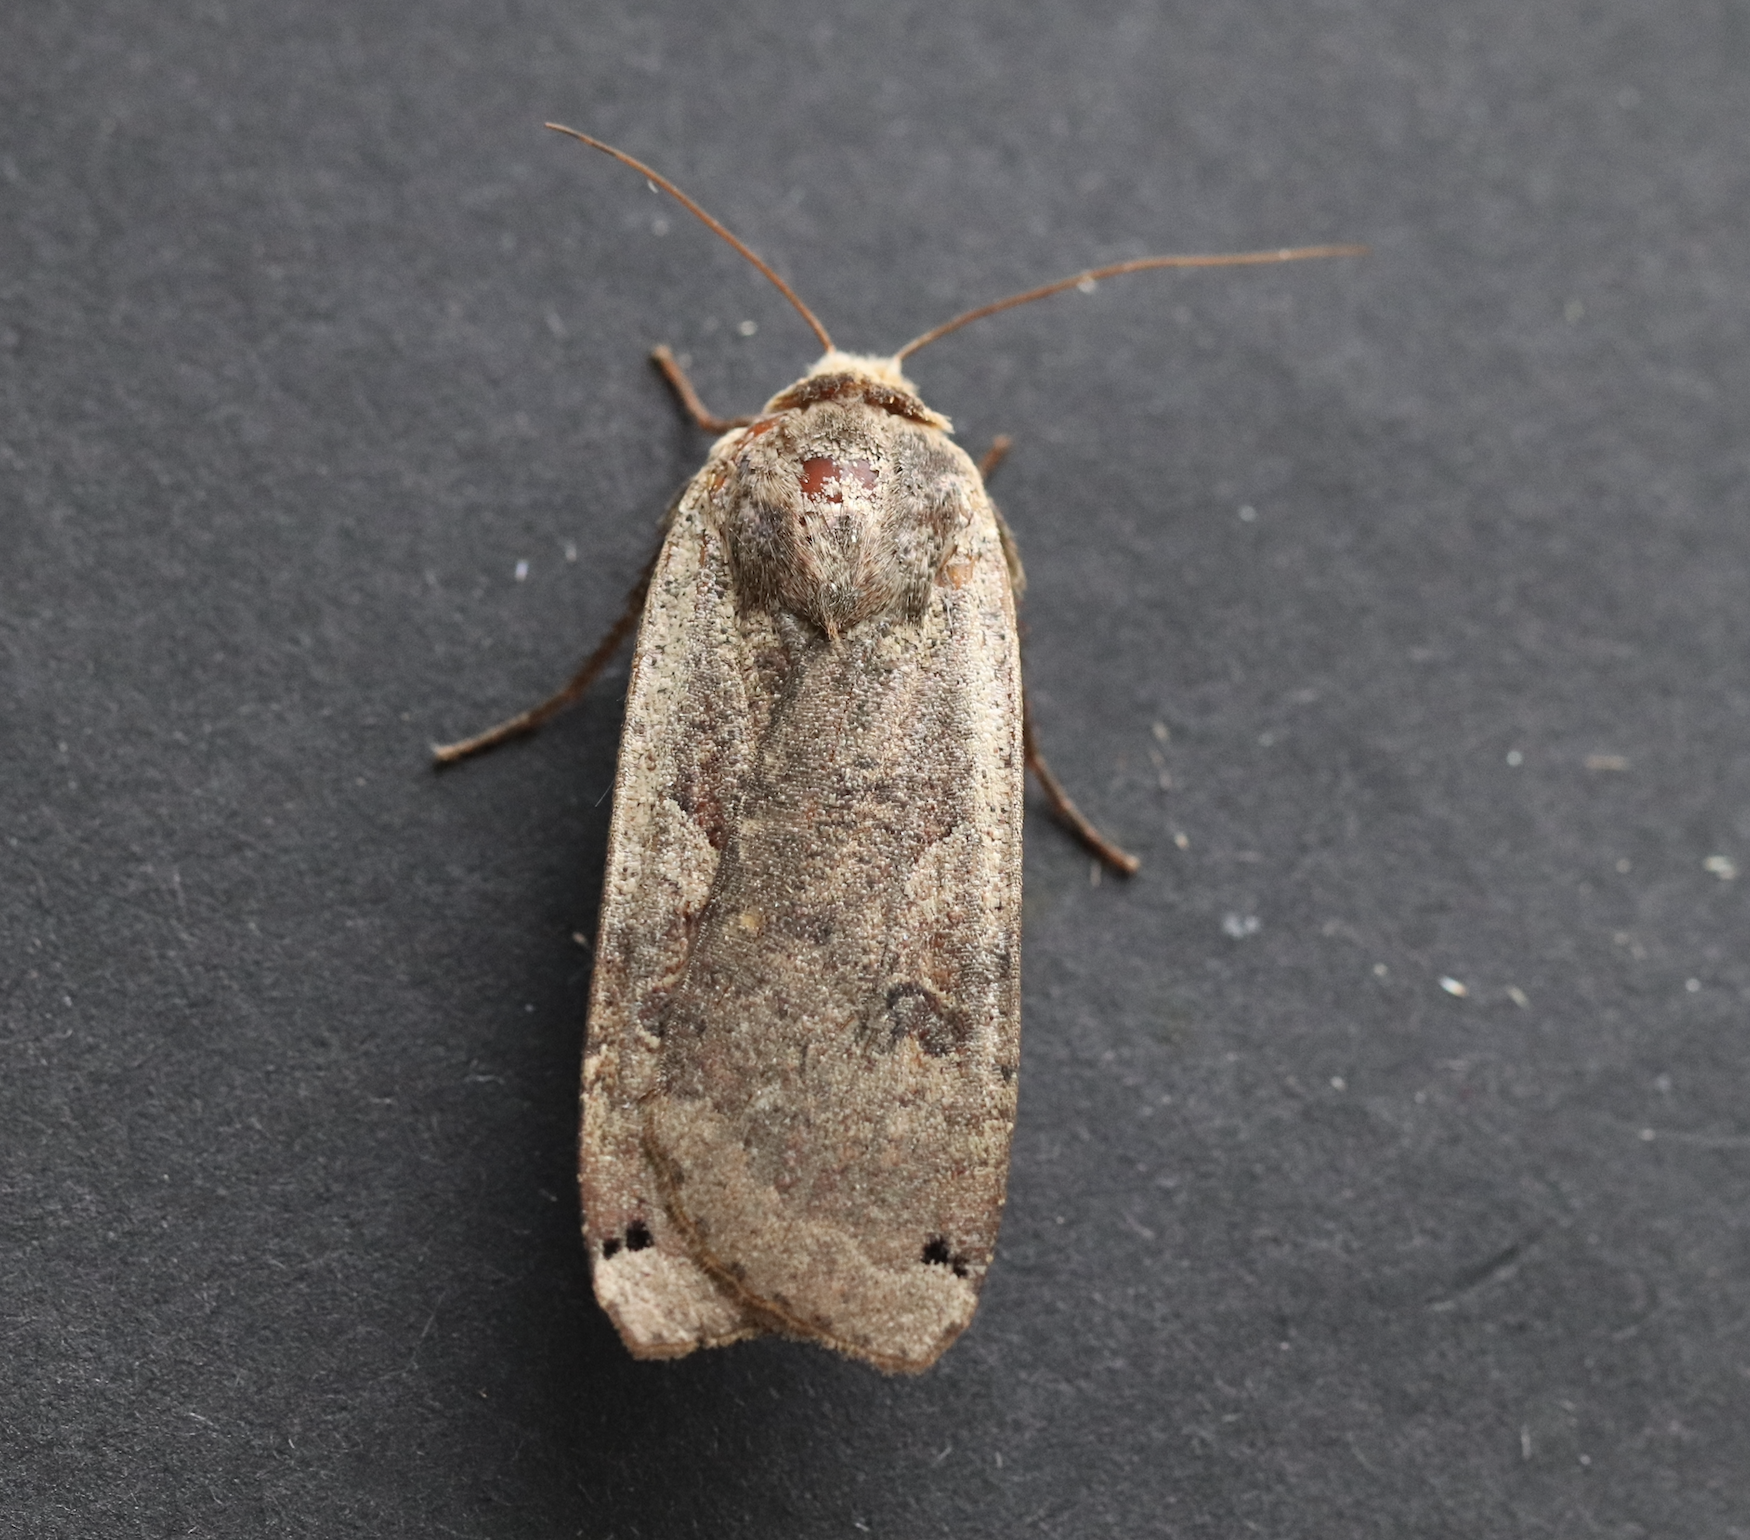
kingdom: Animalia
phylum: Arthropoda
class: Insecta
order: Lepidoptera
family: Noctuidae
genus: Noctua
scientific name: Noctua pronuba
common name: Large yellow underwing
